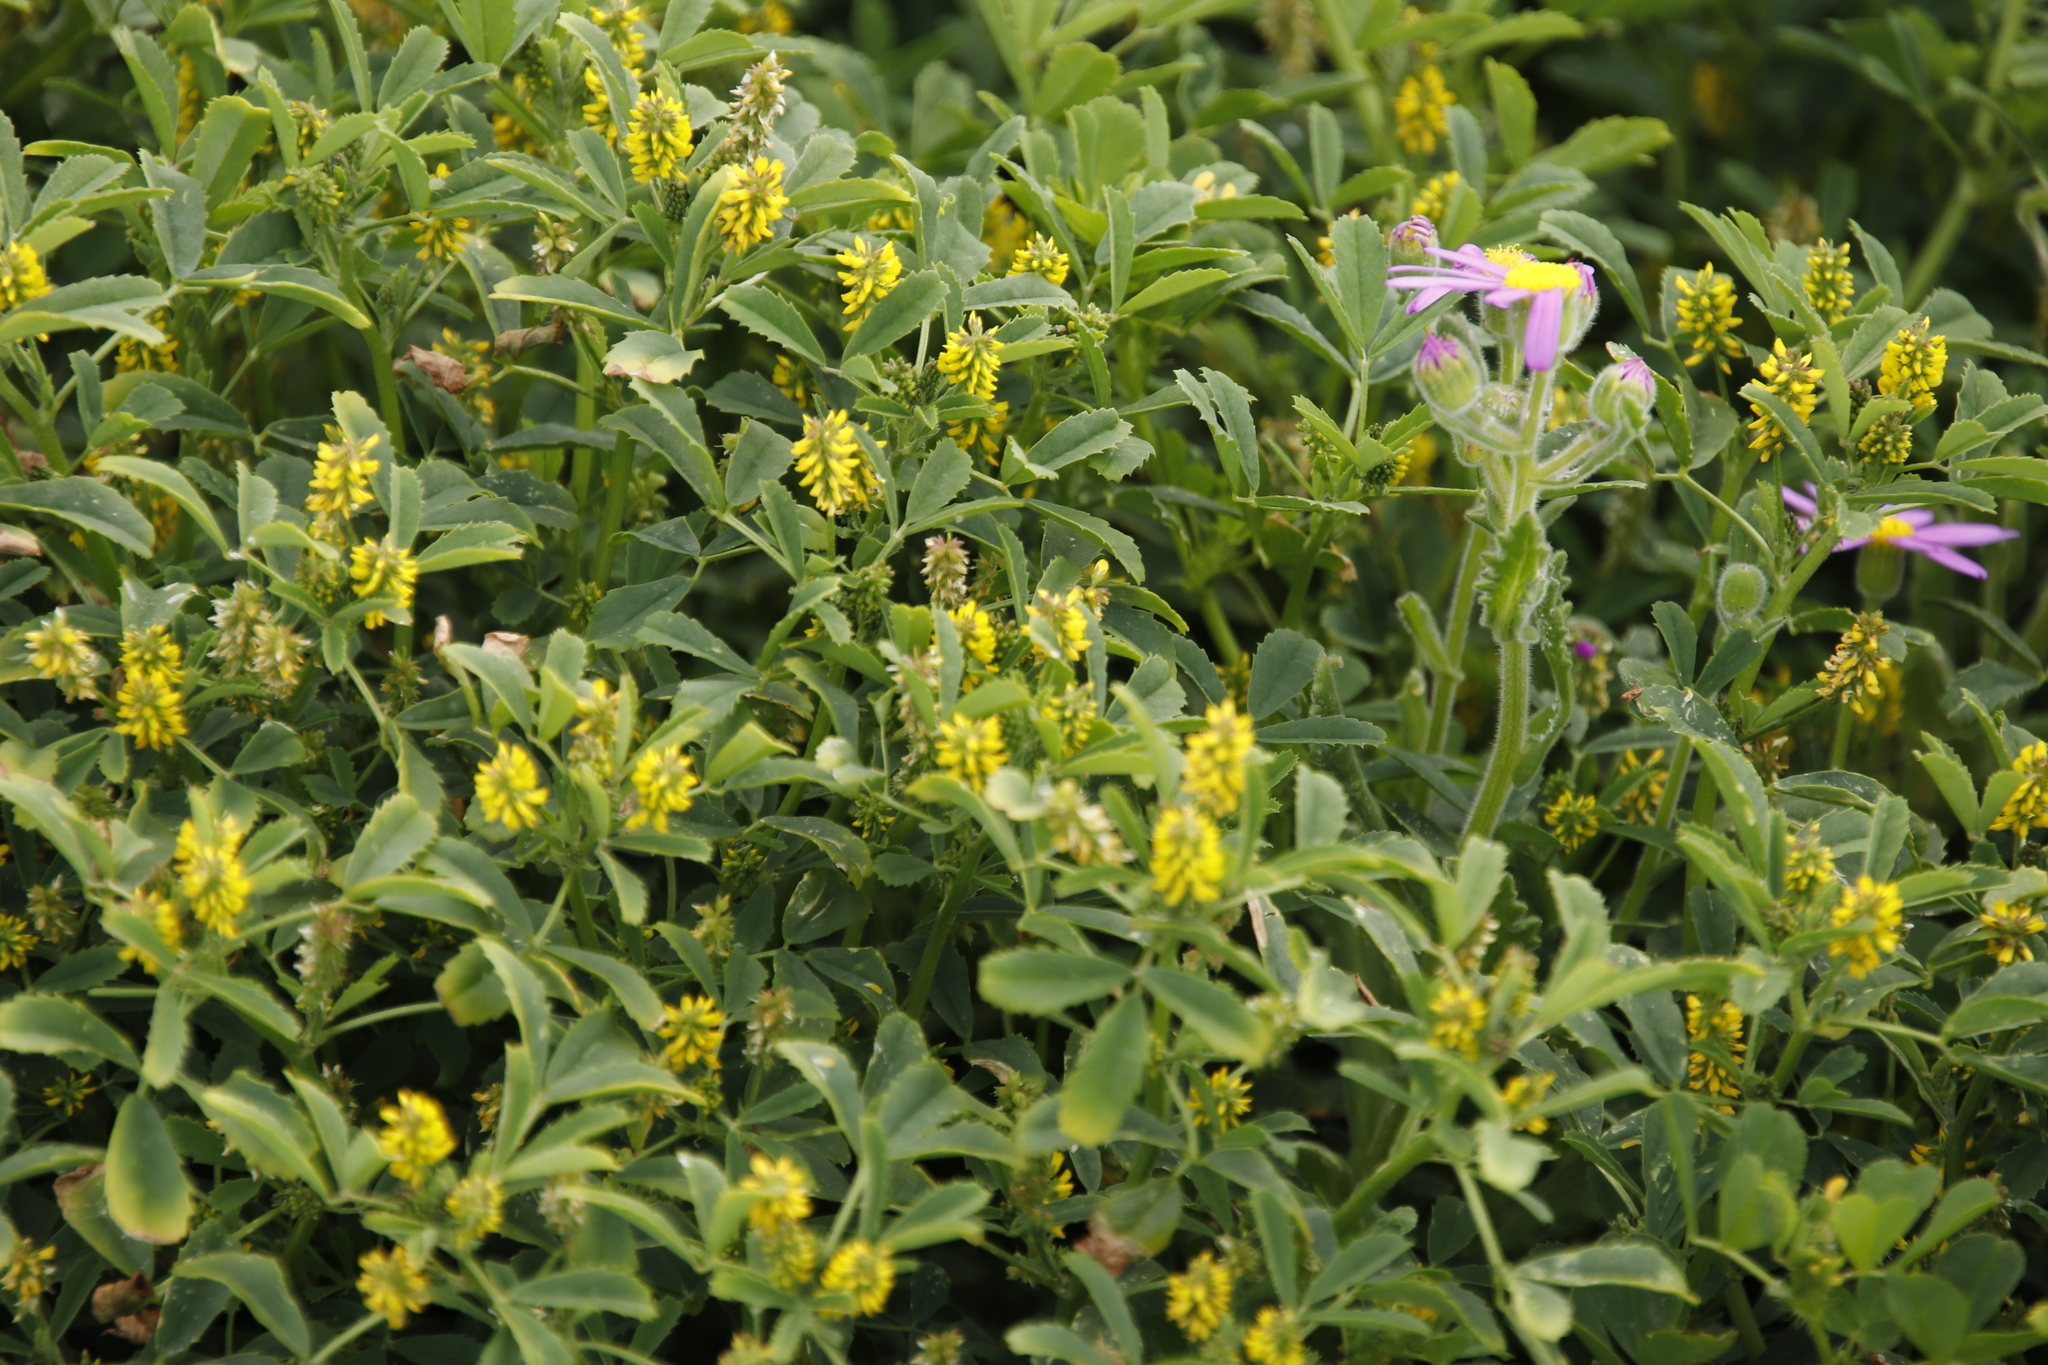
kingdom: Plantae
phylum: Tracheophyta
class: Magnoliopsida
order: Fabales
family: Fabaceae
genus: Melilotus
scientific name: Melilotus indicus
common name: Small melilot
